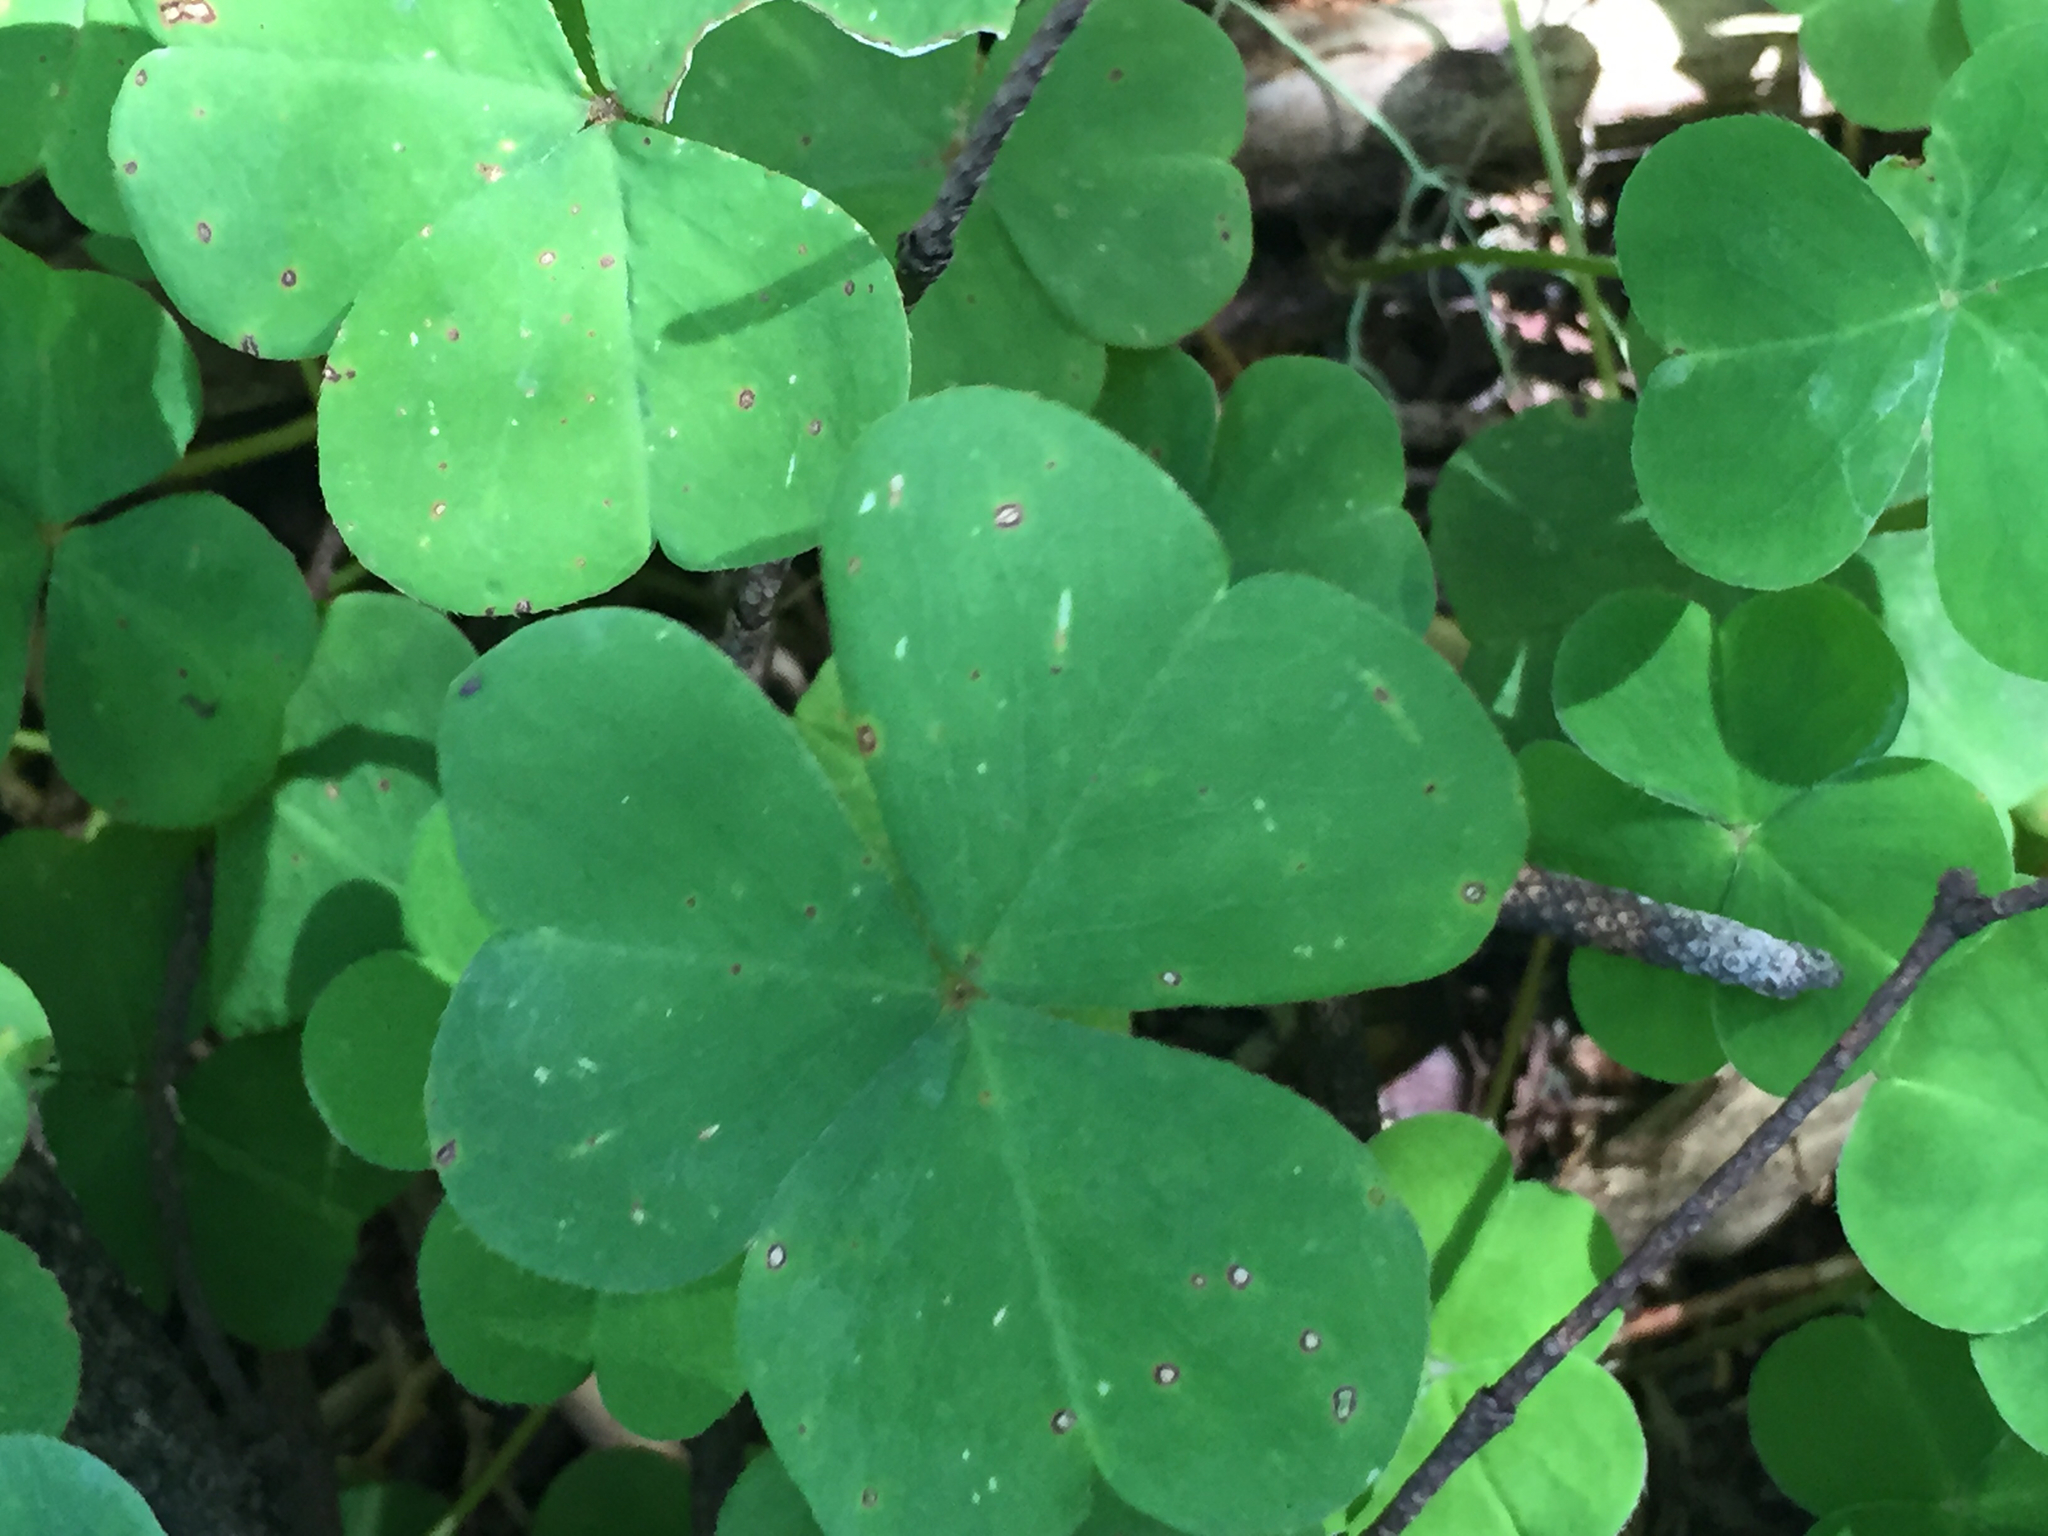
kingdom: Plantae
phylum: Tracheophyta
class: Magnoliopsida
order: Oxalidales
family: Oxalidaceae
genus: Oxalis
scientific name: Oxalis oregana
